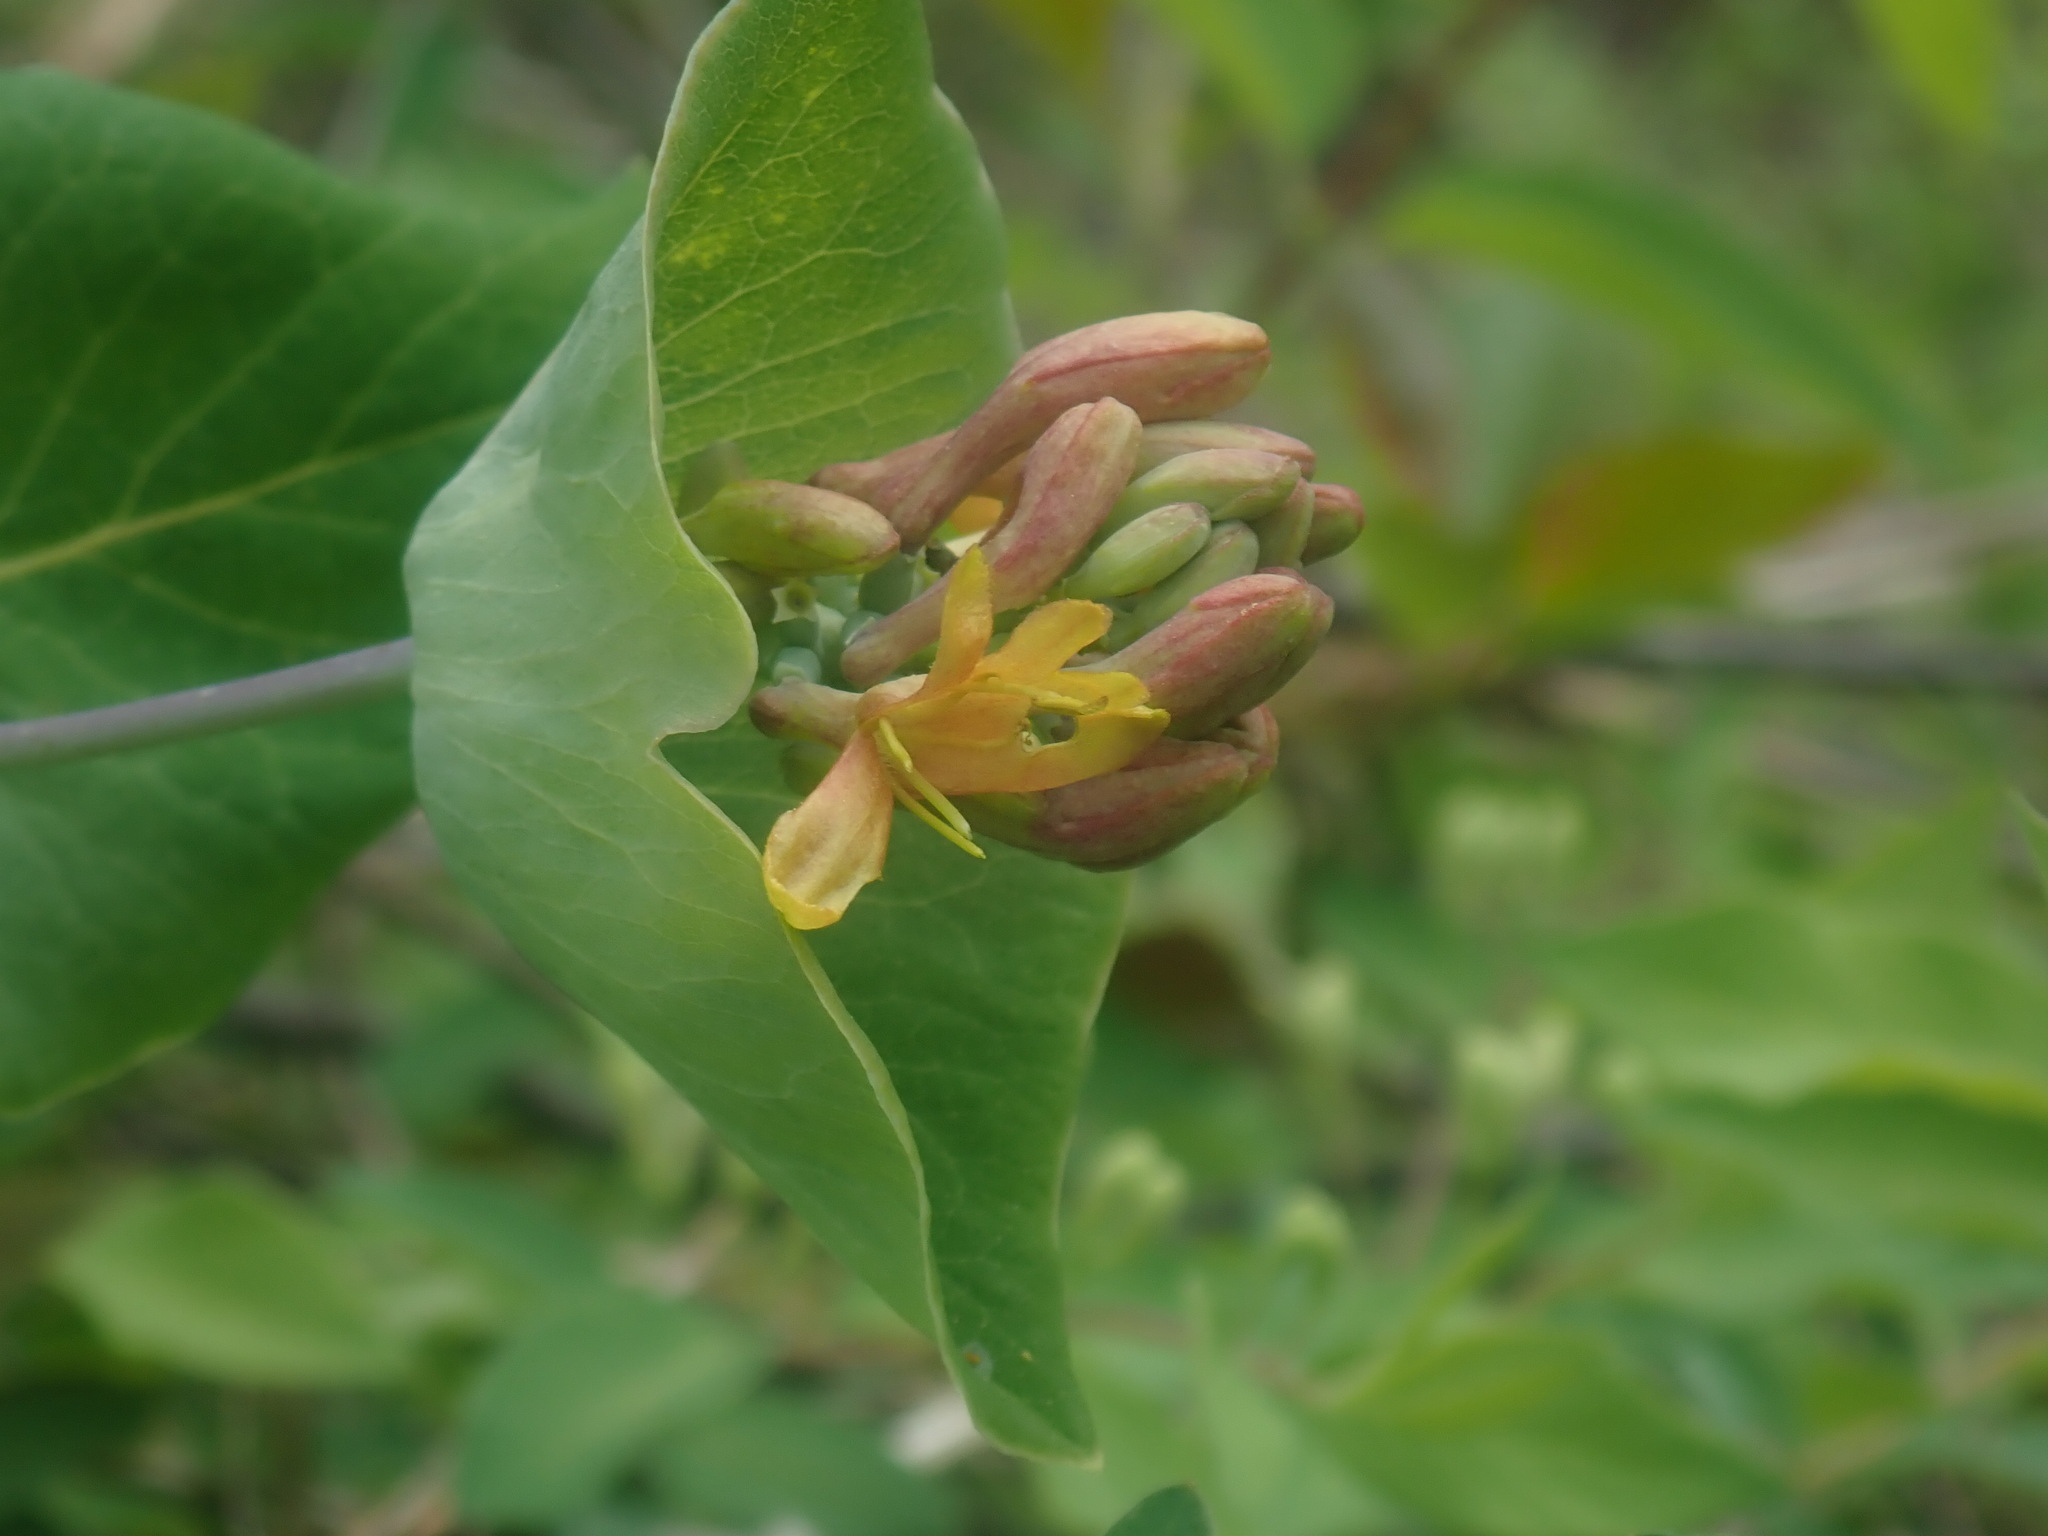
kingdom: Plantae
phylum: Tracheophyta
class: Magnoliopsida
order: Dipsacales
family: Caprifoliaceae
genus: Lonicera
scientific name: Lonicera dioica
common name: Limber honeysuckle
